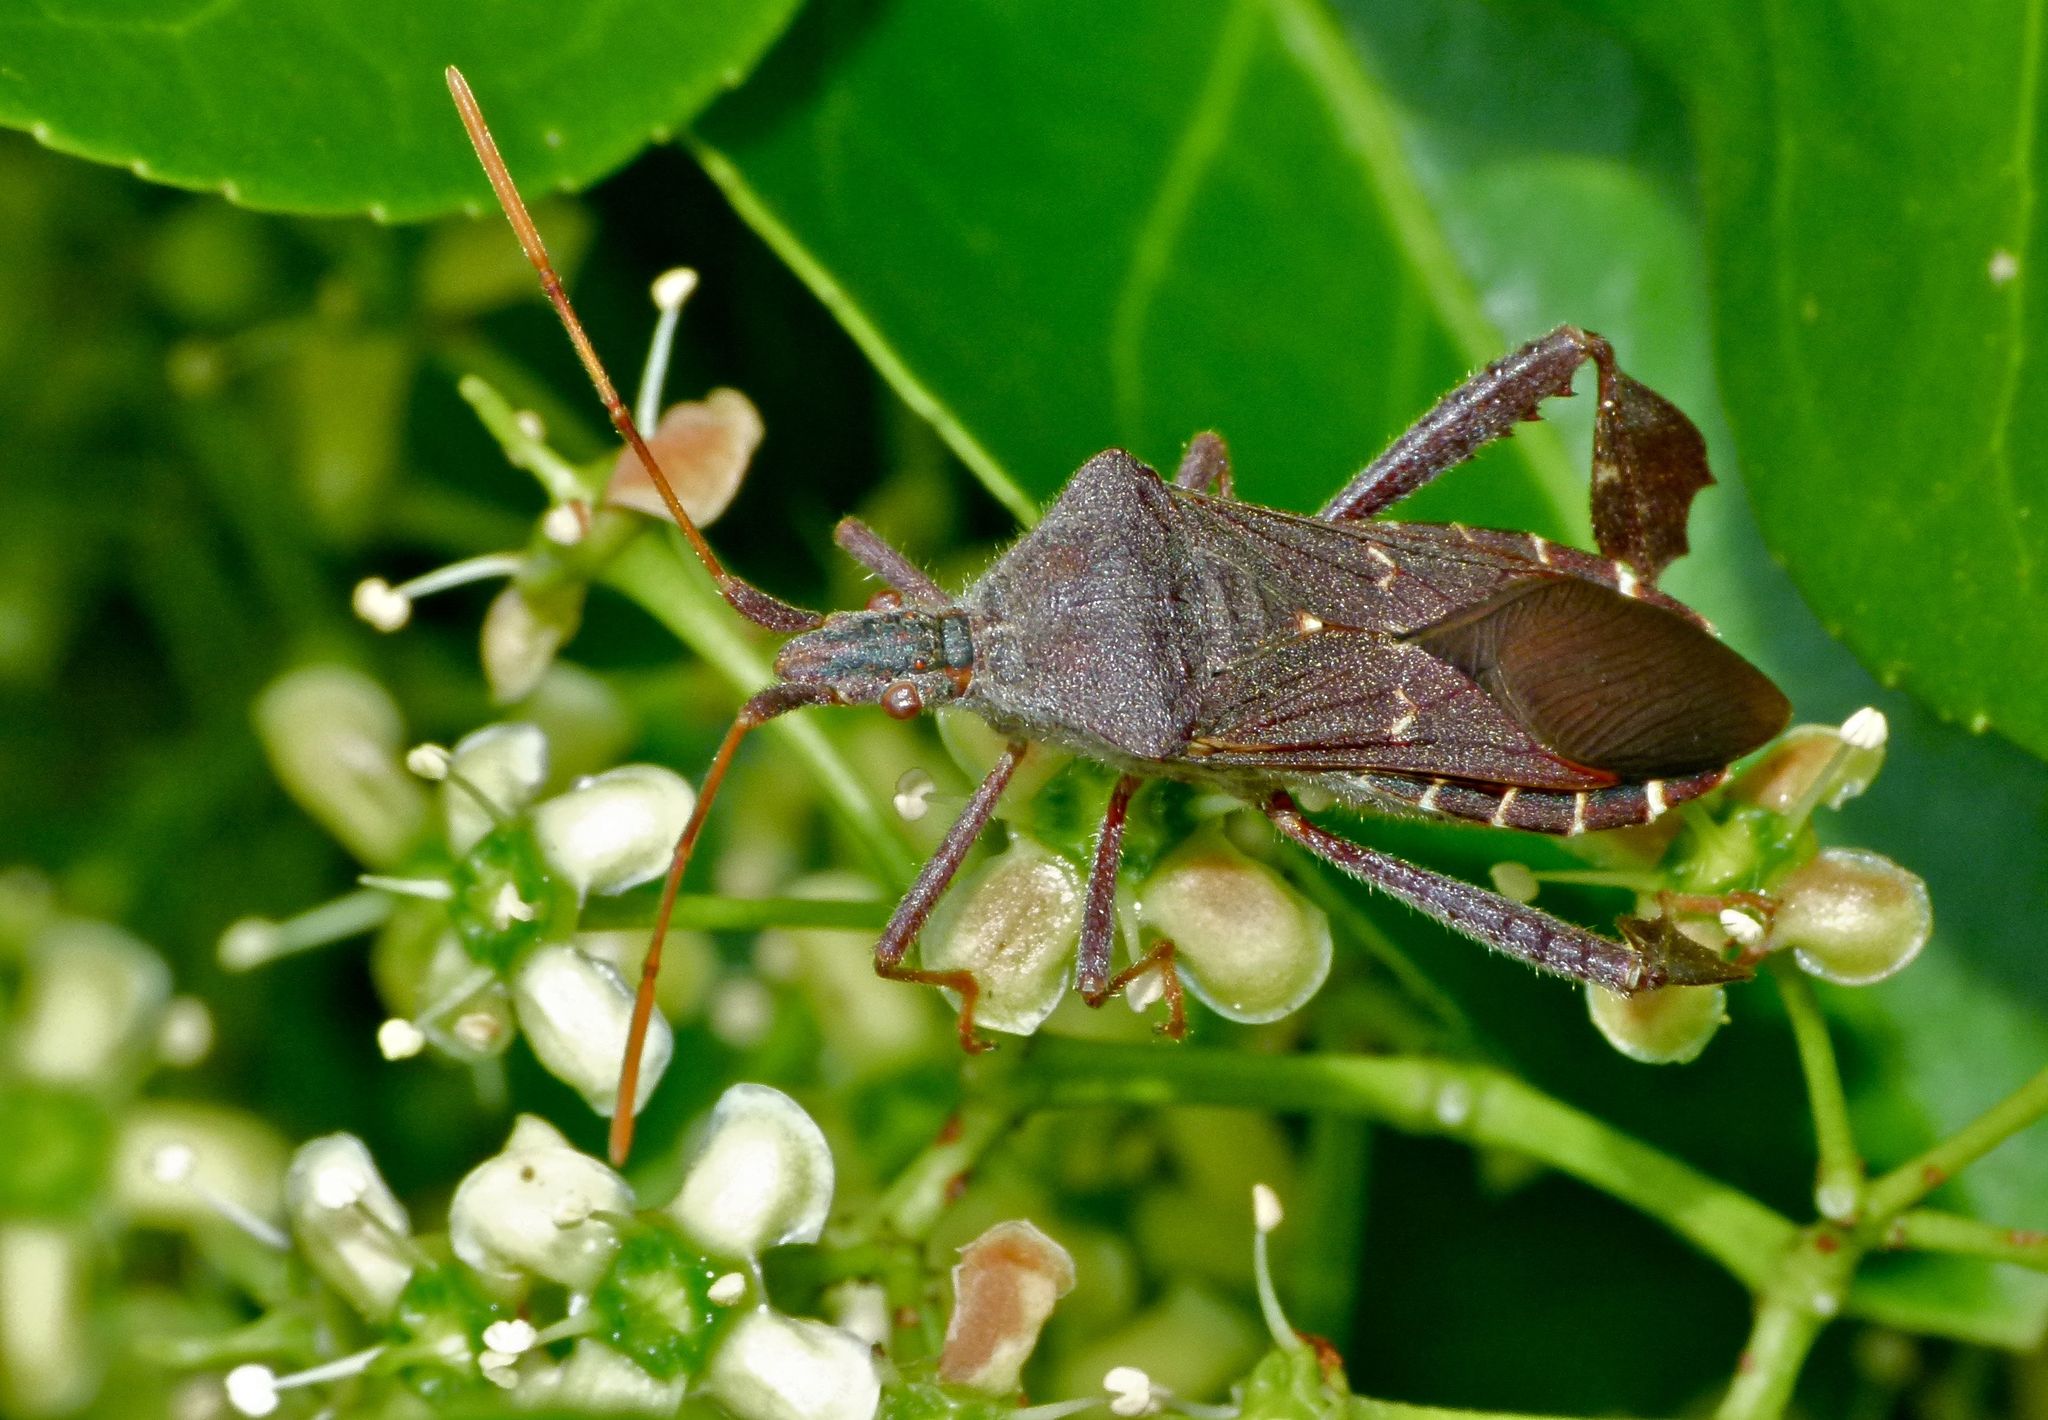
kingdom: Animalia
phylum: Arthropoda
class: Insecta
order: Hemiptera
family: Coreidae
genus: Leptoglossus
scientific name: Leptoglossus oppositus
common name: Northern leaf-footed bug
